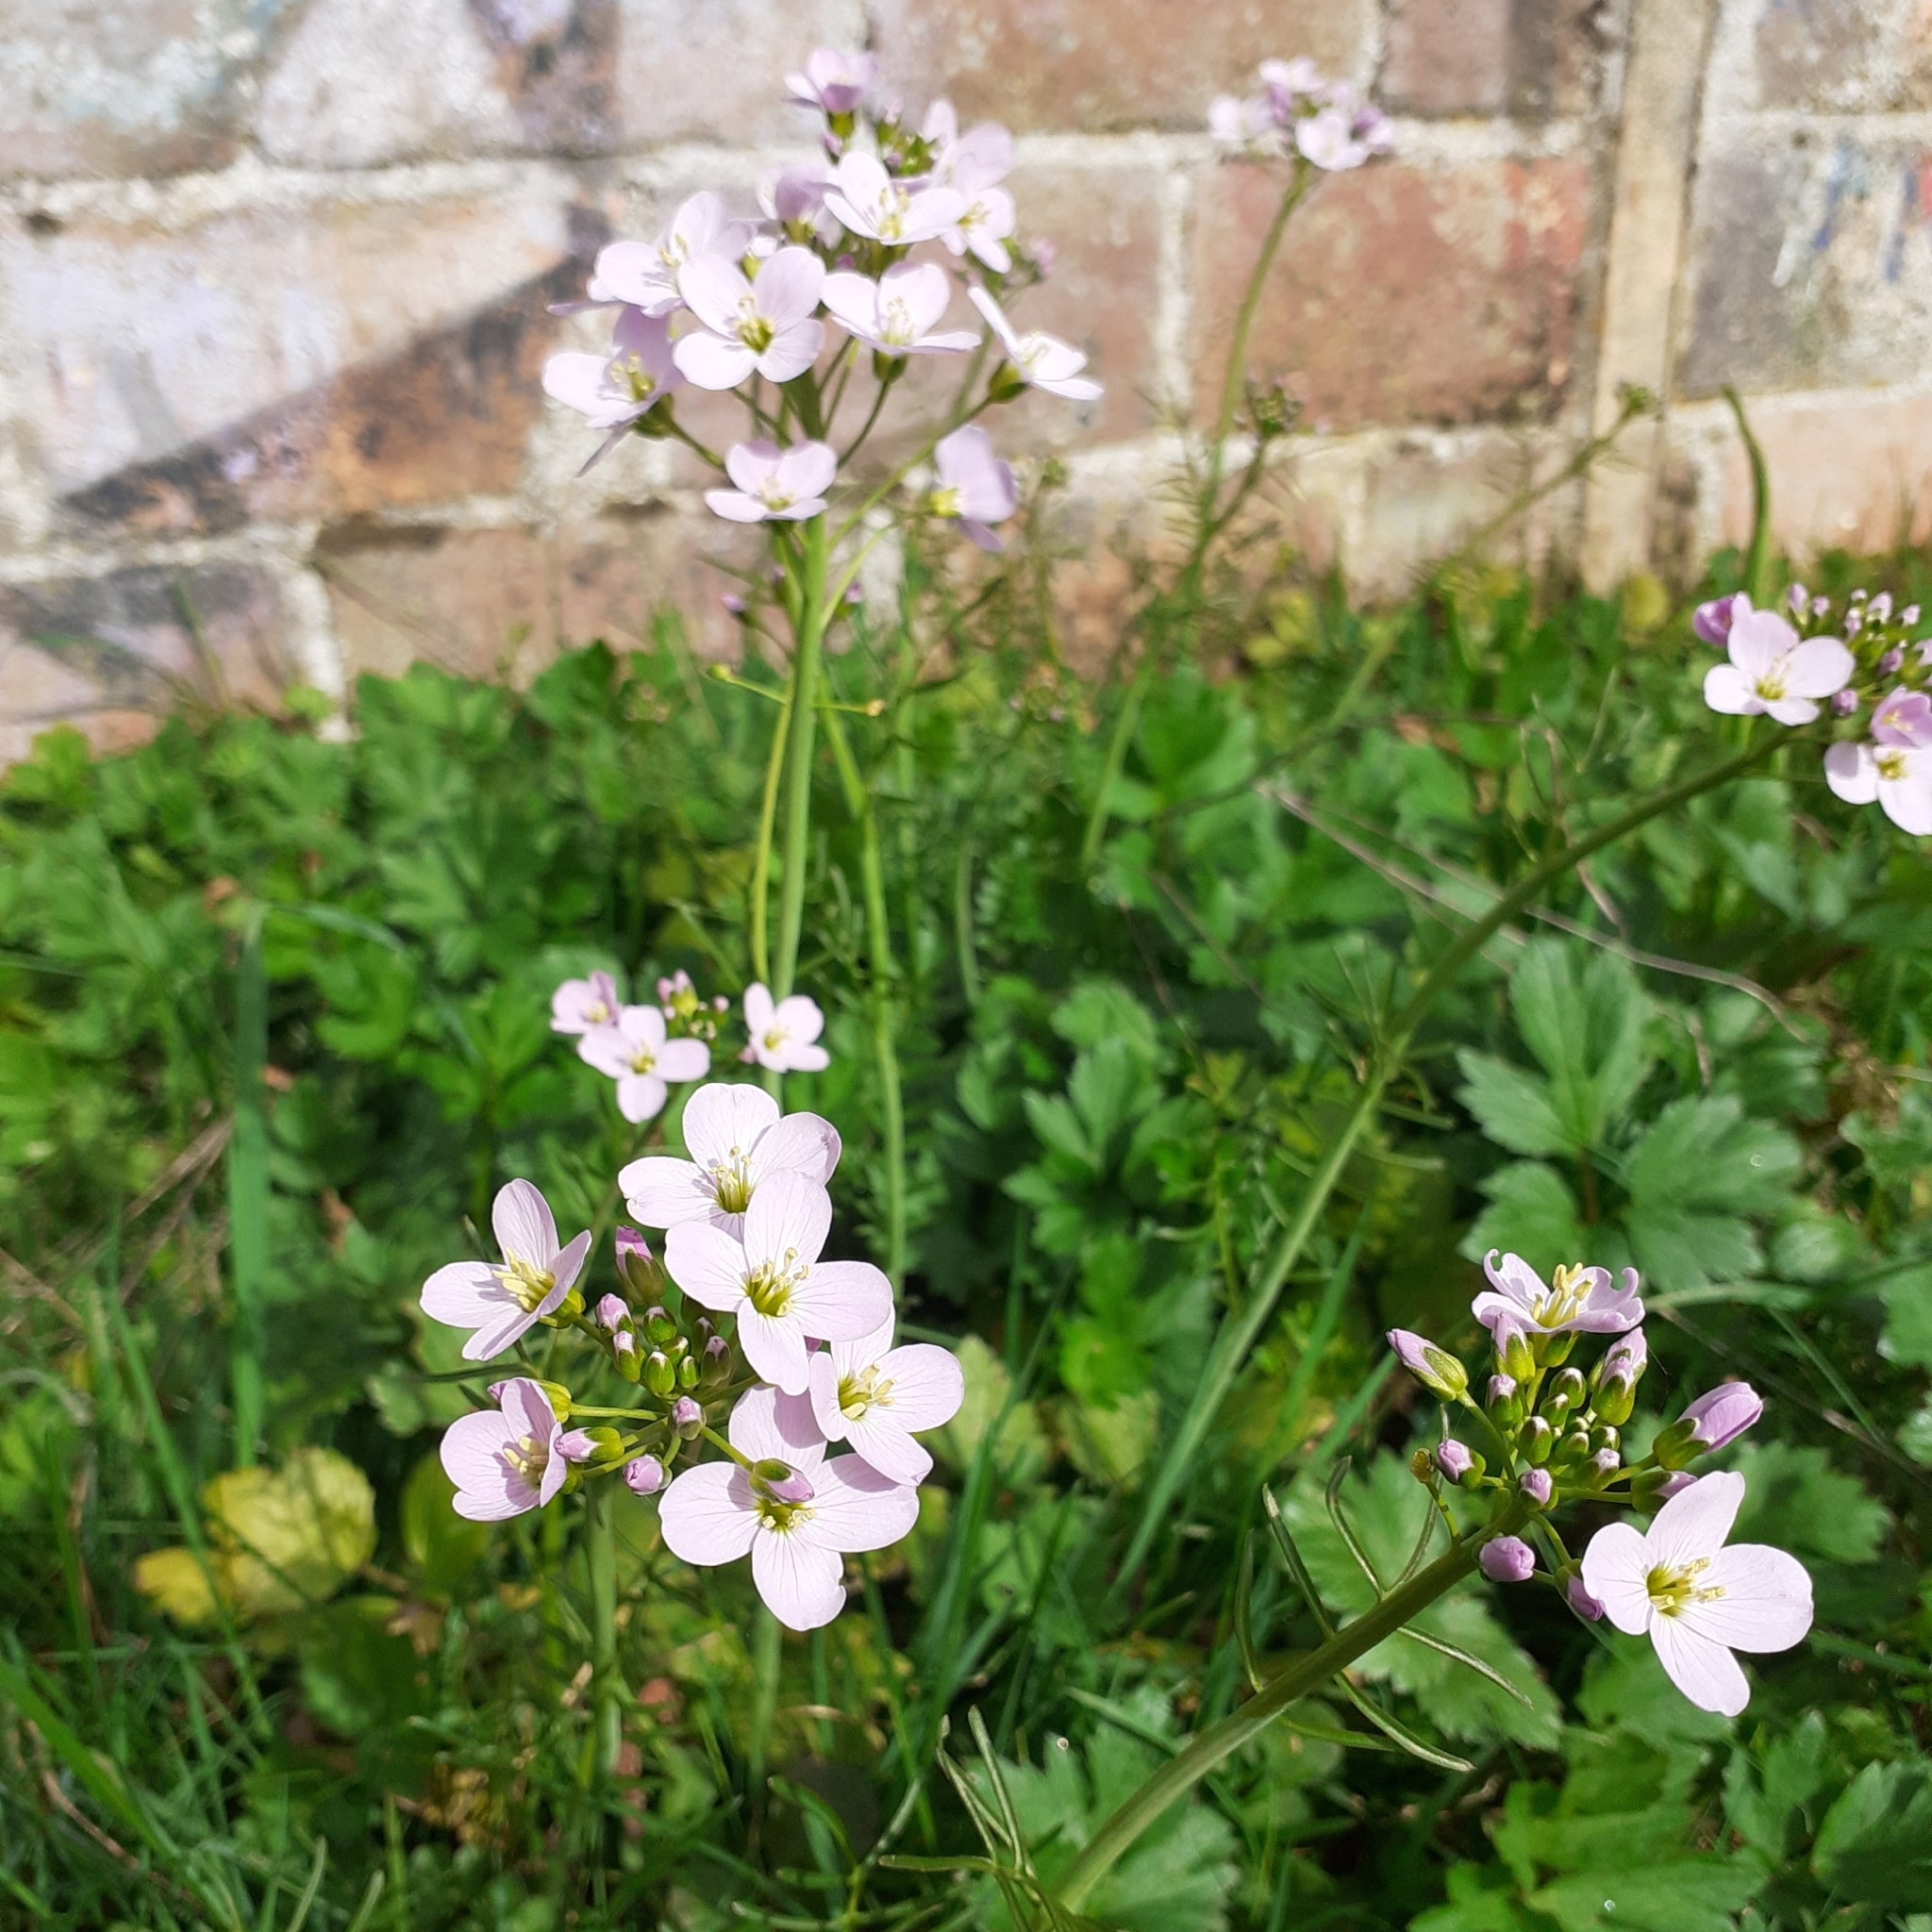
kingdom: Plantae
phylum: Tracheophyta
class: Magnoliopsida
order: Brassicales
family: Brassicaceae
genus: Cardamine
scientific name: Cardamine pratensis
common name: Cuckoo flower
